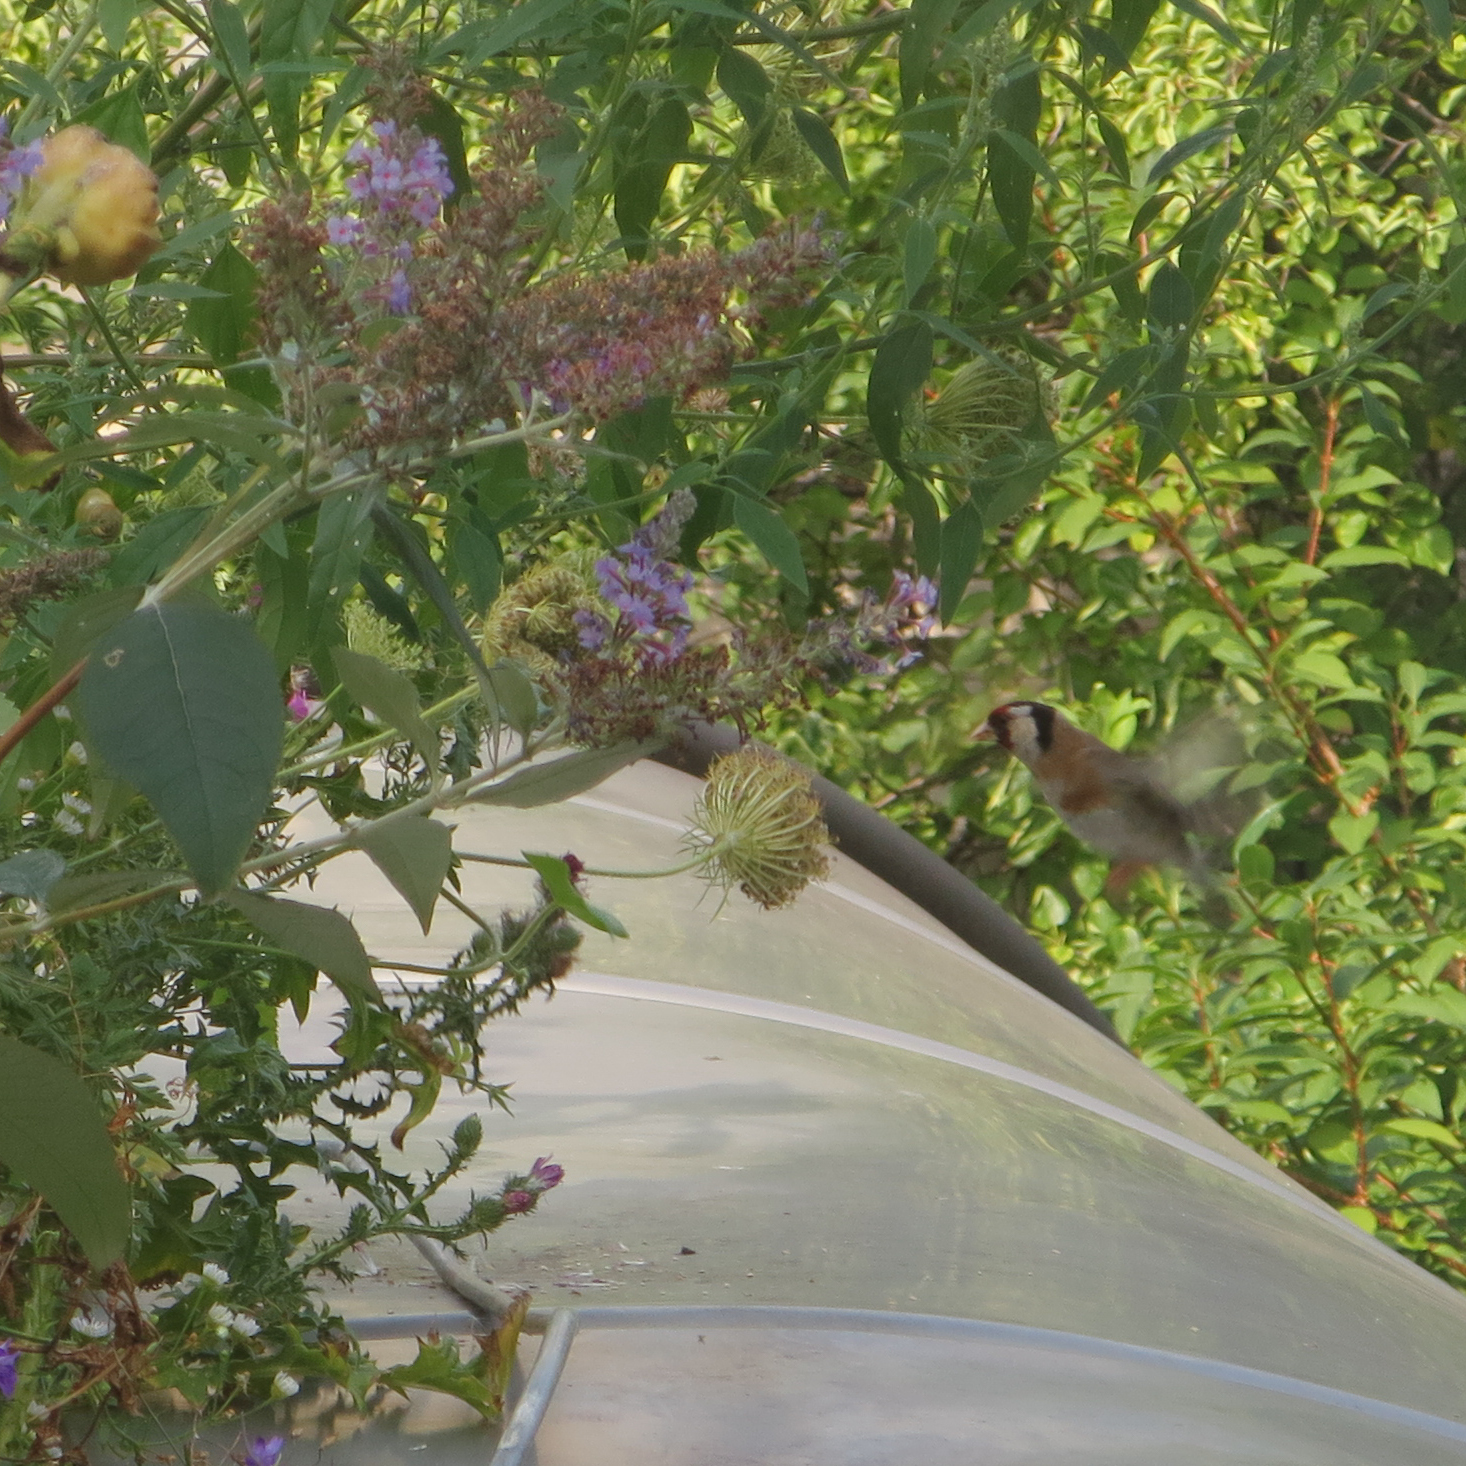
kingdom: Animalia
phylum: Chordata
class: Aves
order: Passeriformes
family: Fringillidae
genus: Carduelis
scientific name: Carduelis carduelis
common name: European goldfinch
